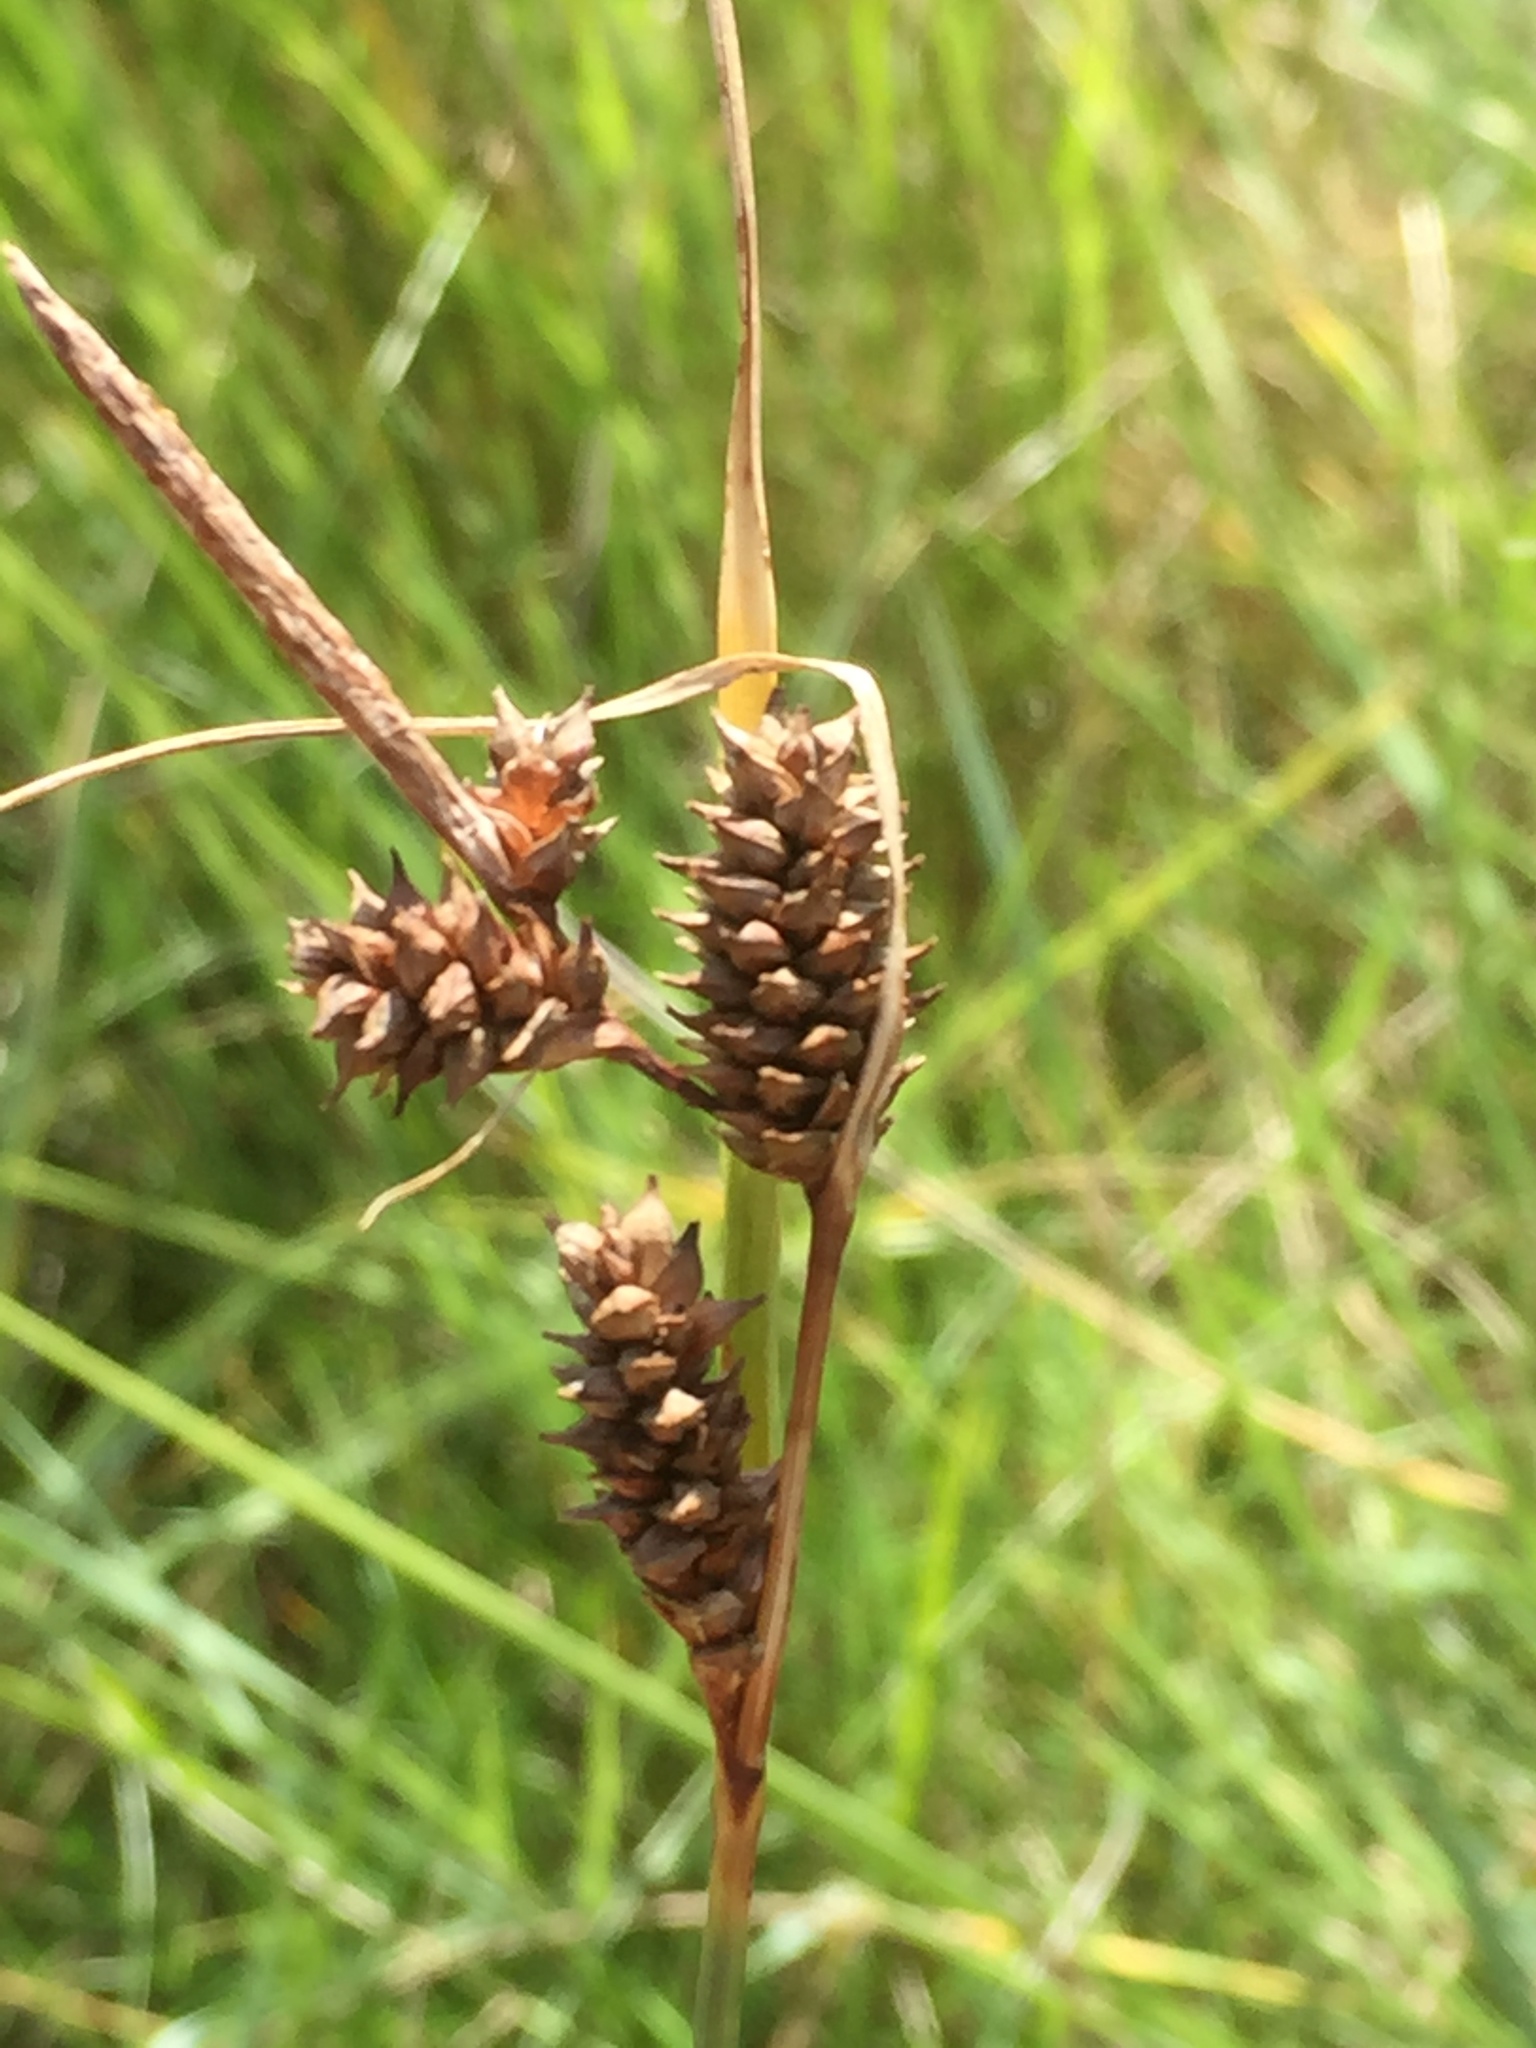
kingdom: Plantae
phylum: Tracheophyta
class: Liliopsida
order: Poales
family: Cyperaceae
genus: Carex
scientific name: Carex extensa
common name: Long-bracted sedge
